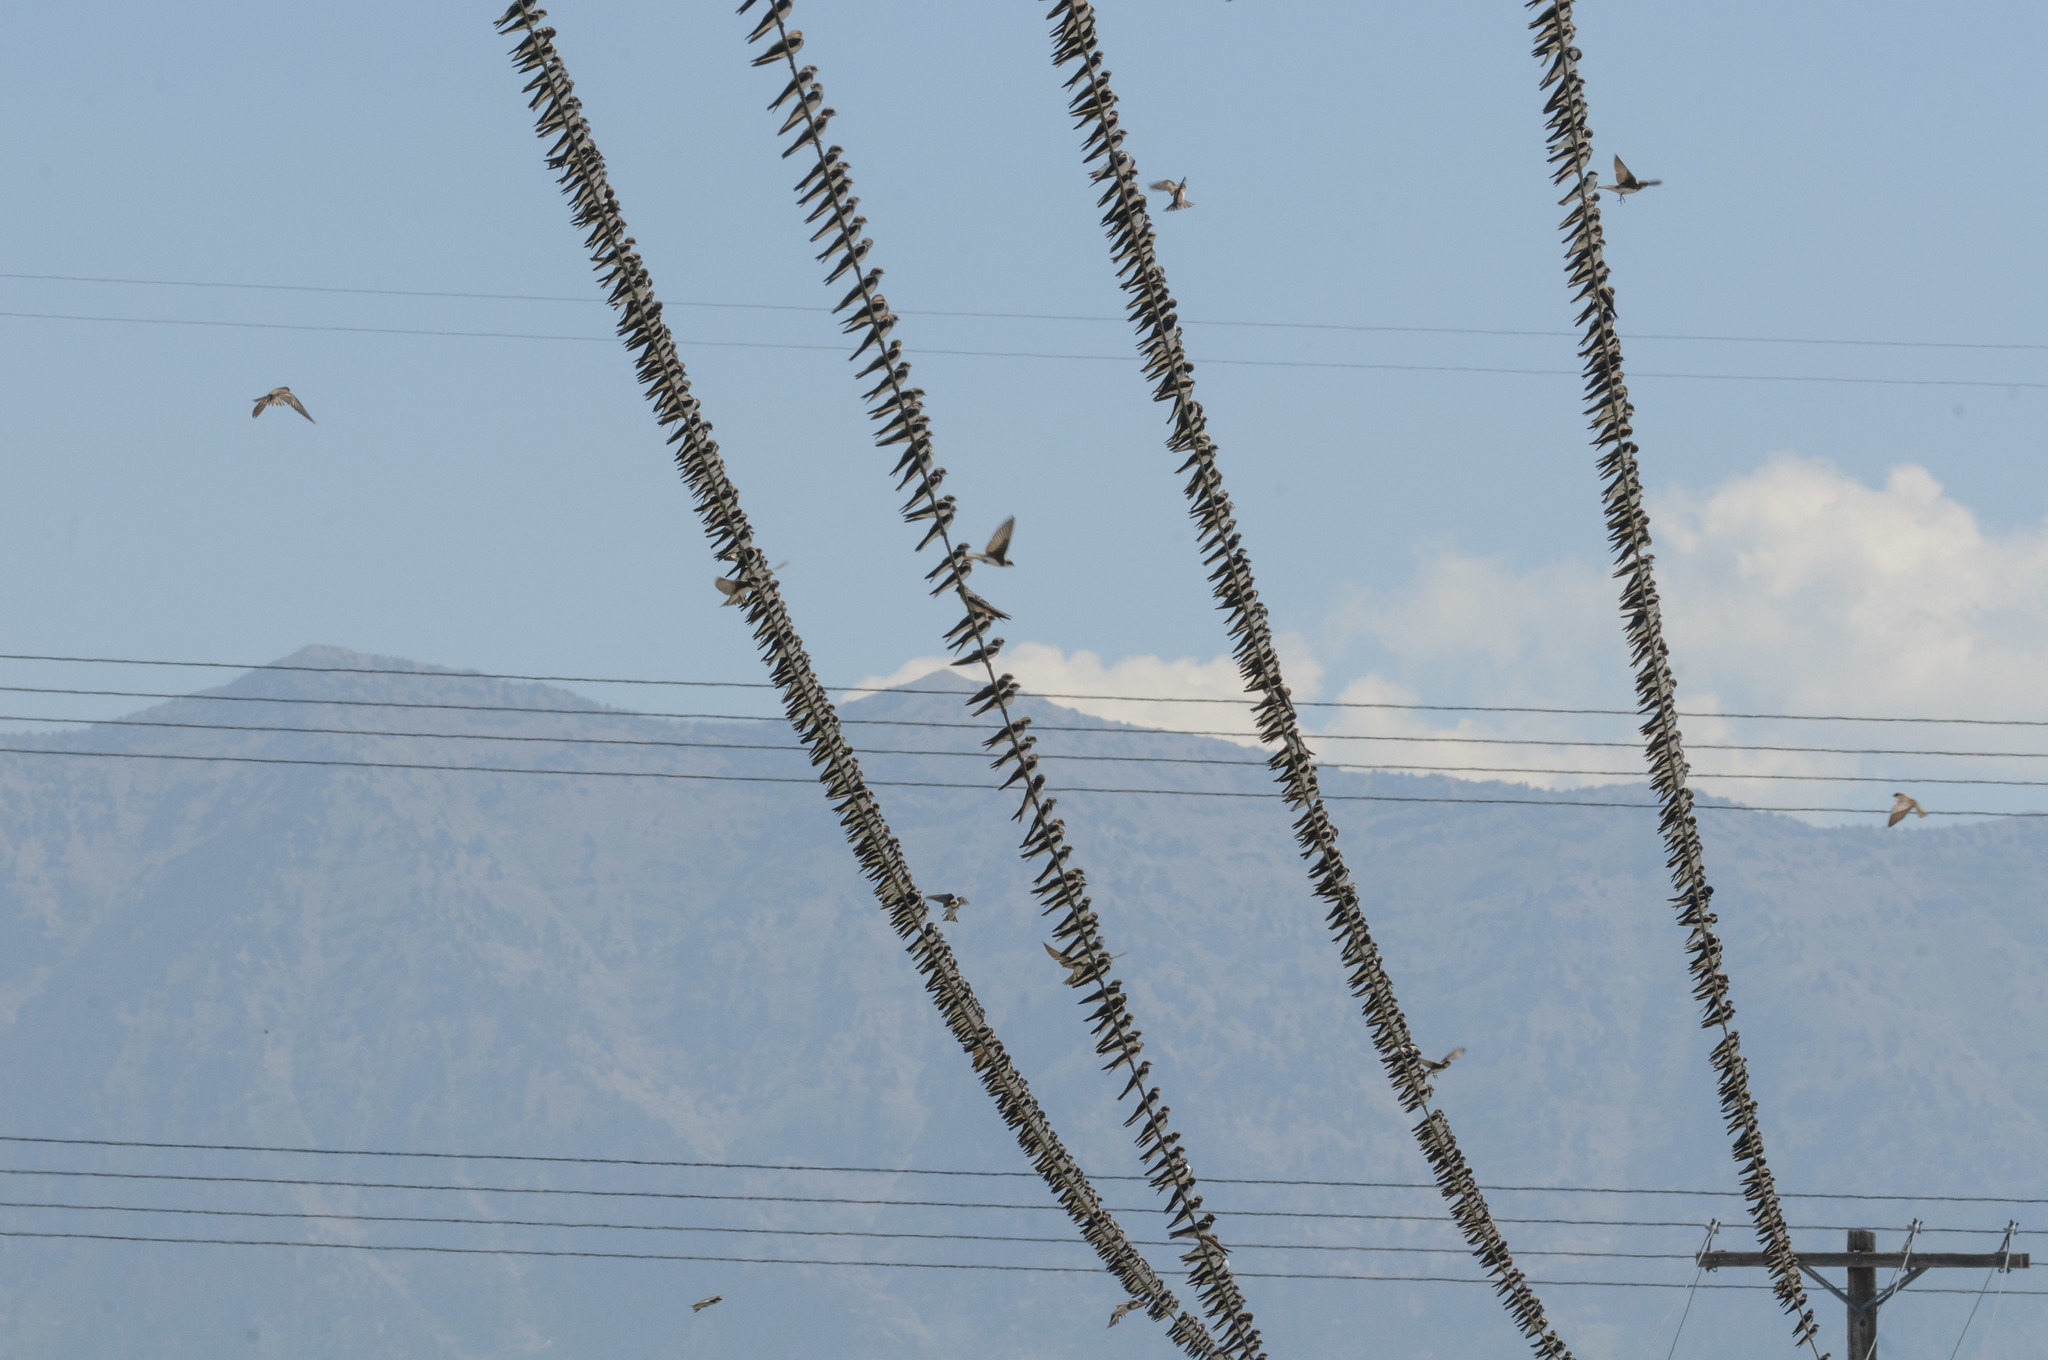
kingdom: Animalia
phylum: Chordata
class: Aves
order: Passeriformes
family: Hirundinidae
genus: Tachycineta
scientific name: Tachycineta bicolor
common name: Tree swallow
